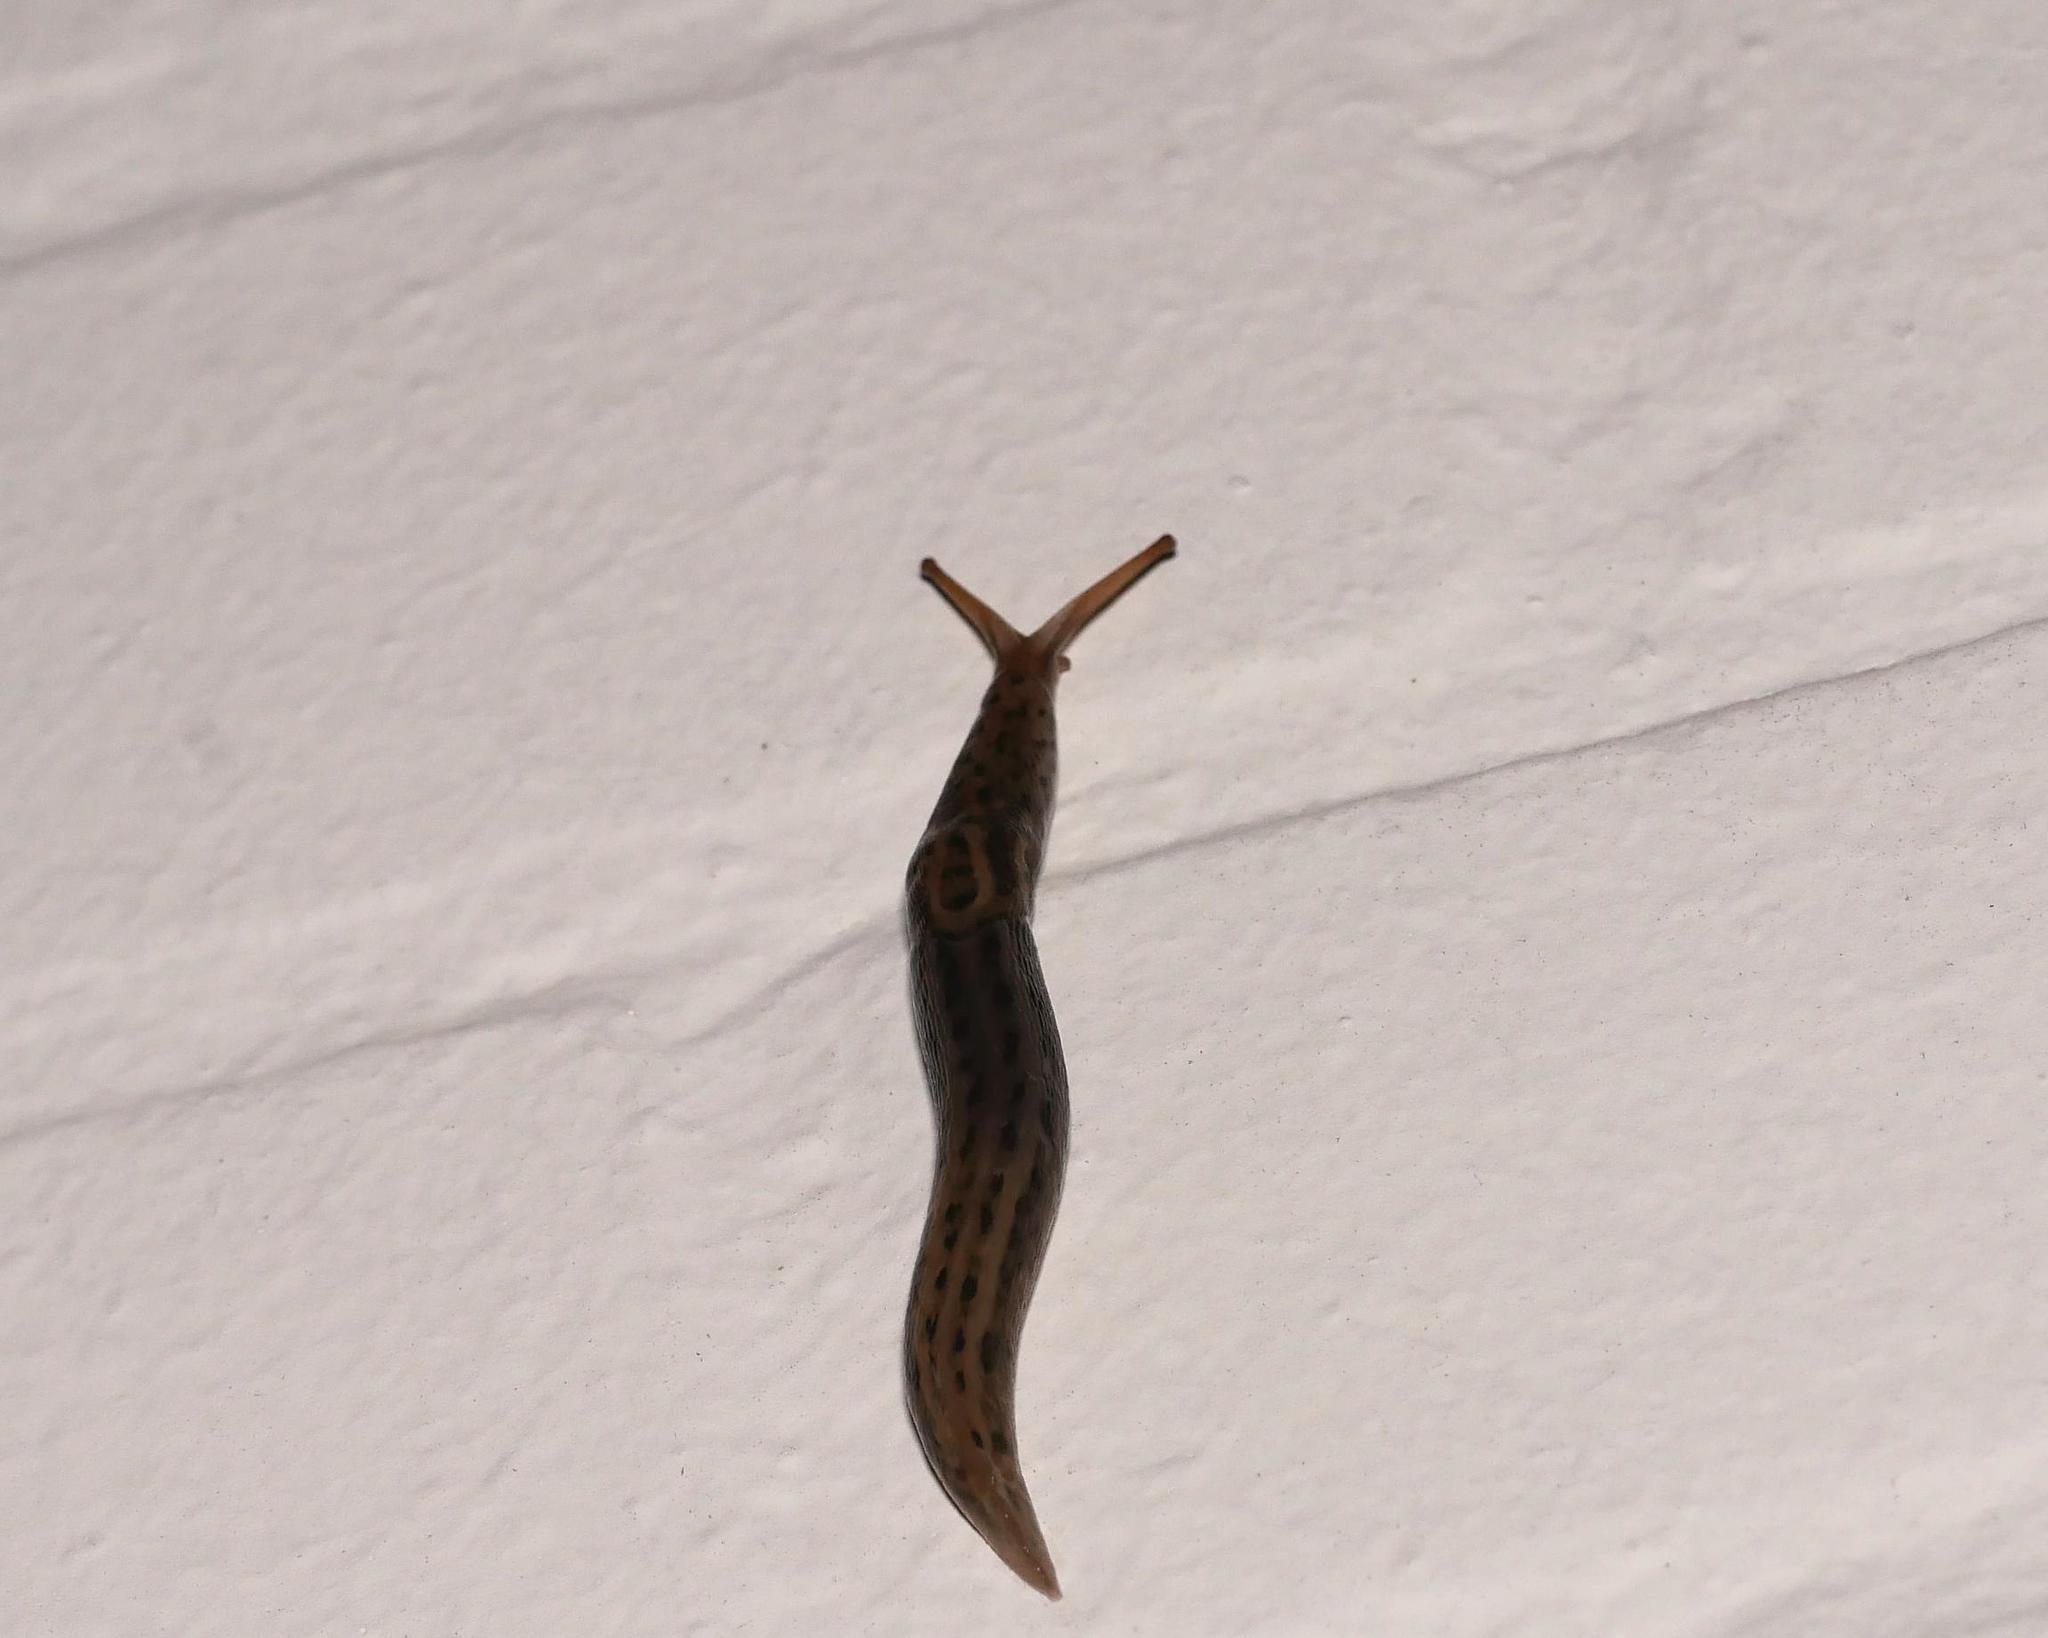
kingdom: Animalia
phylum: Mollusca
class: Gastropoda
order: Stylommatophora
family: Limacidae
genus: Limax
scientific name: Limax maximus
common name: Great grey slug
